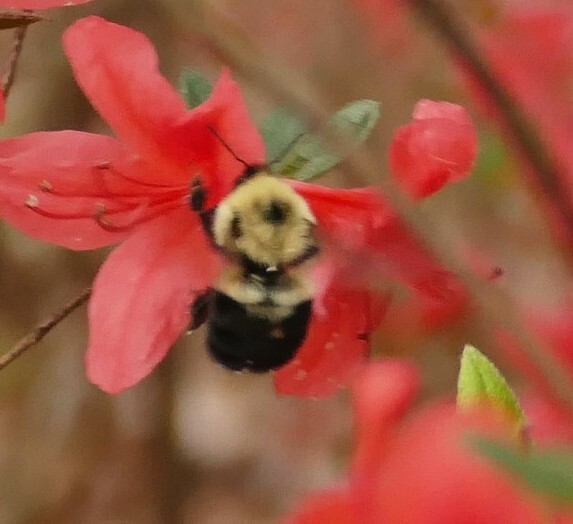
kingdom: Animalia
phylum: Arthropoda
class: Insecta
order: Hymenoptera
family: Apidae
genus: Bombus
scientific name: Bombus bimaculatus
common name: Two-spotted bumble bee
